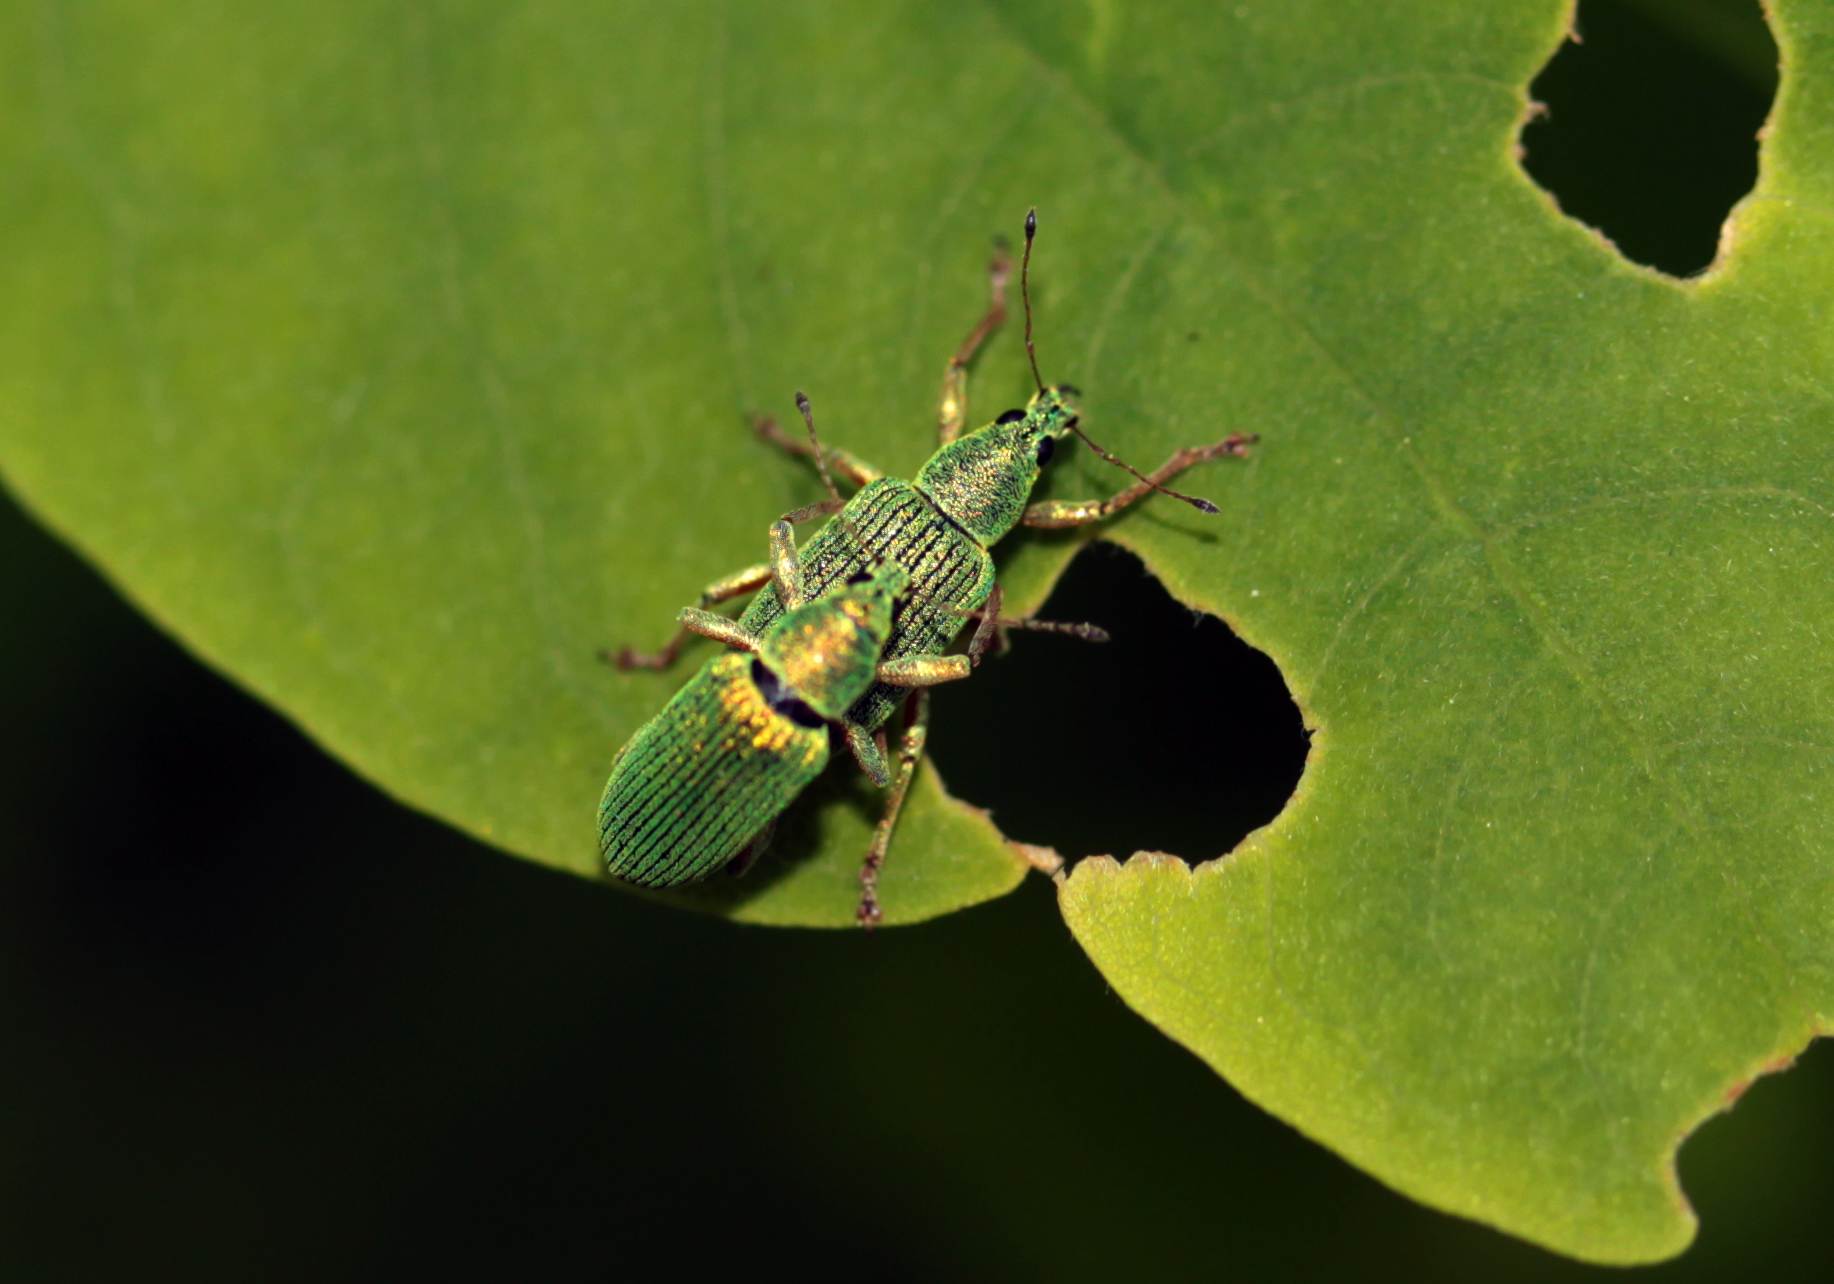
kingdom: Animalia
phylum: Arthropoda
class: Insecta
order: Coleoptera
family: Curculionidae
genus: Polydrusus
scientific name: Polydrusus formosus
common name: Weevil
